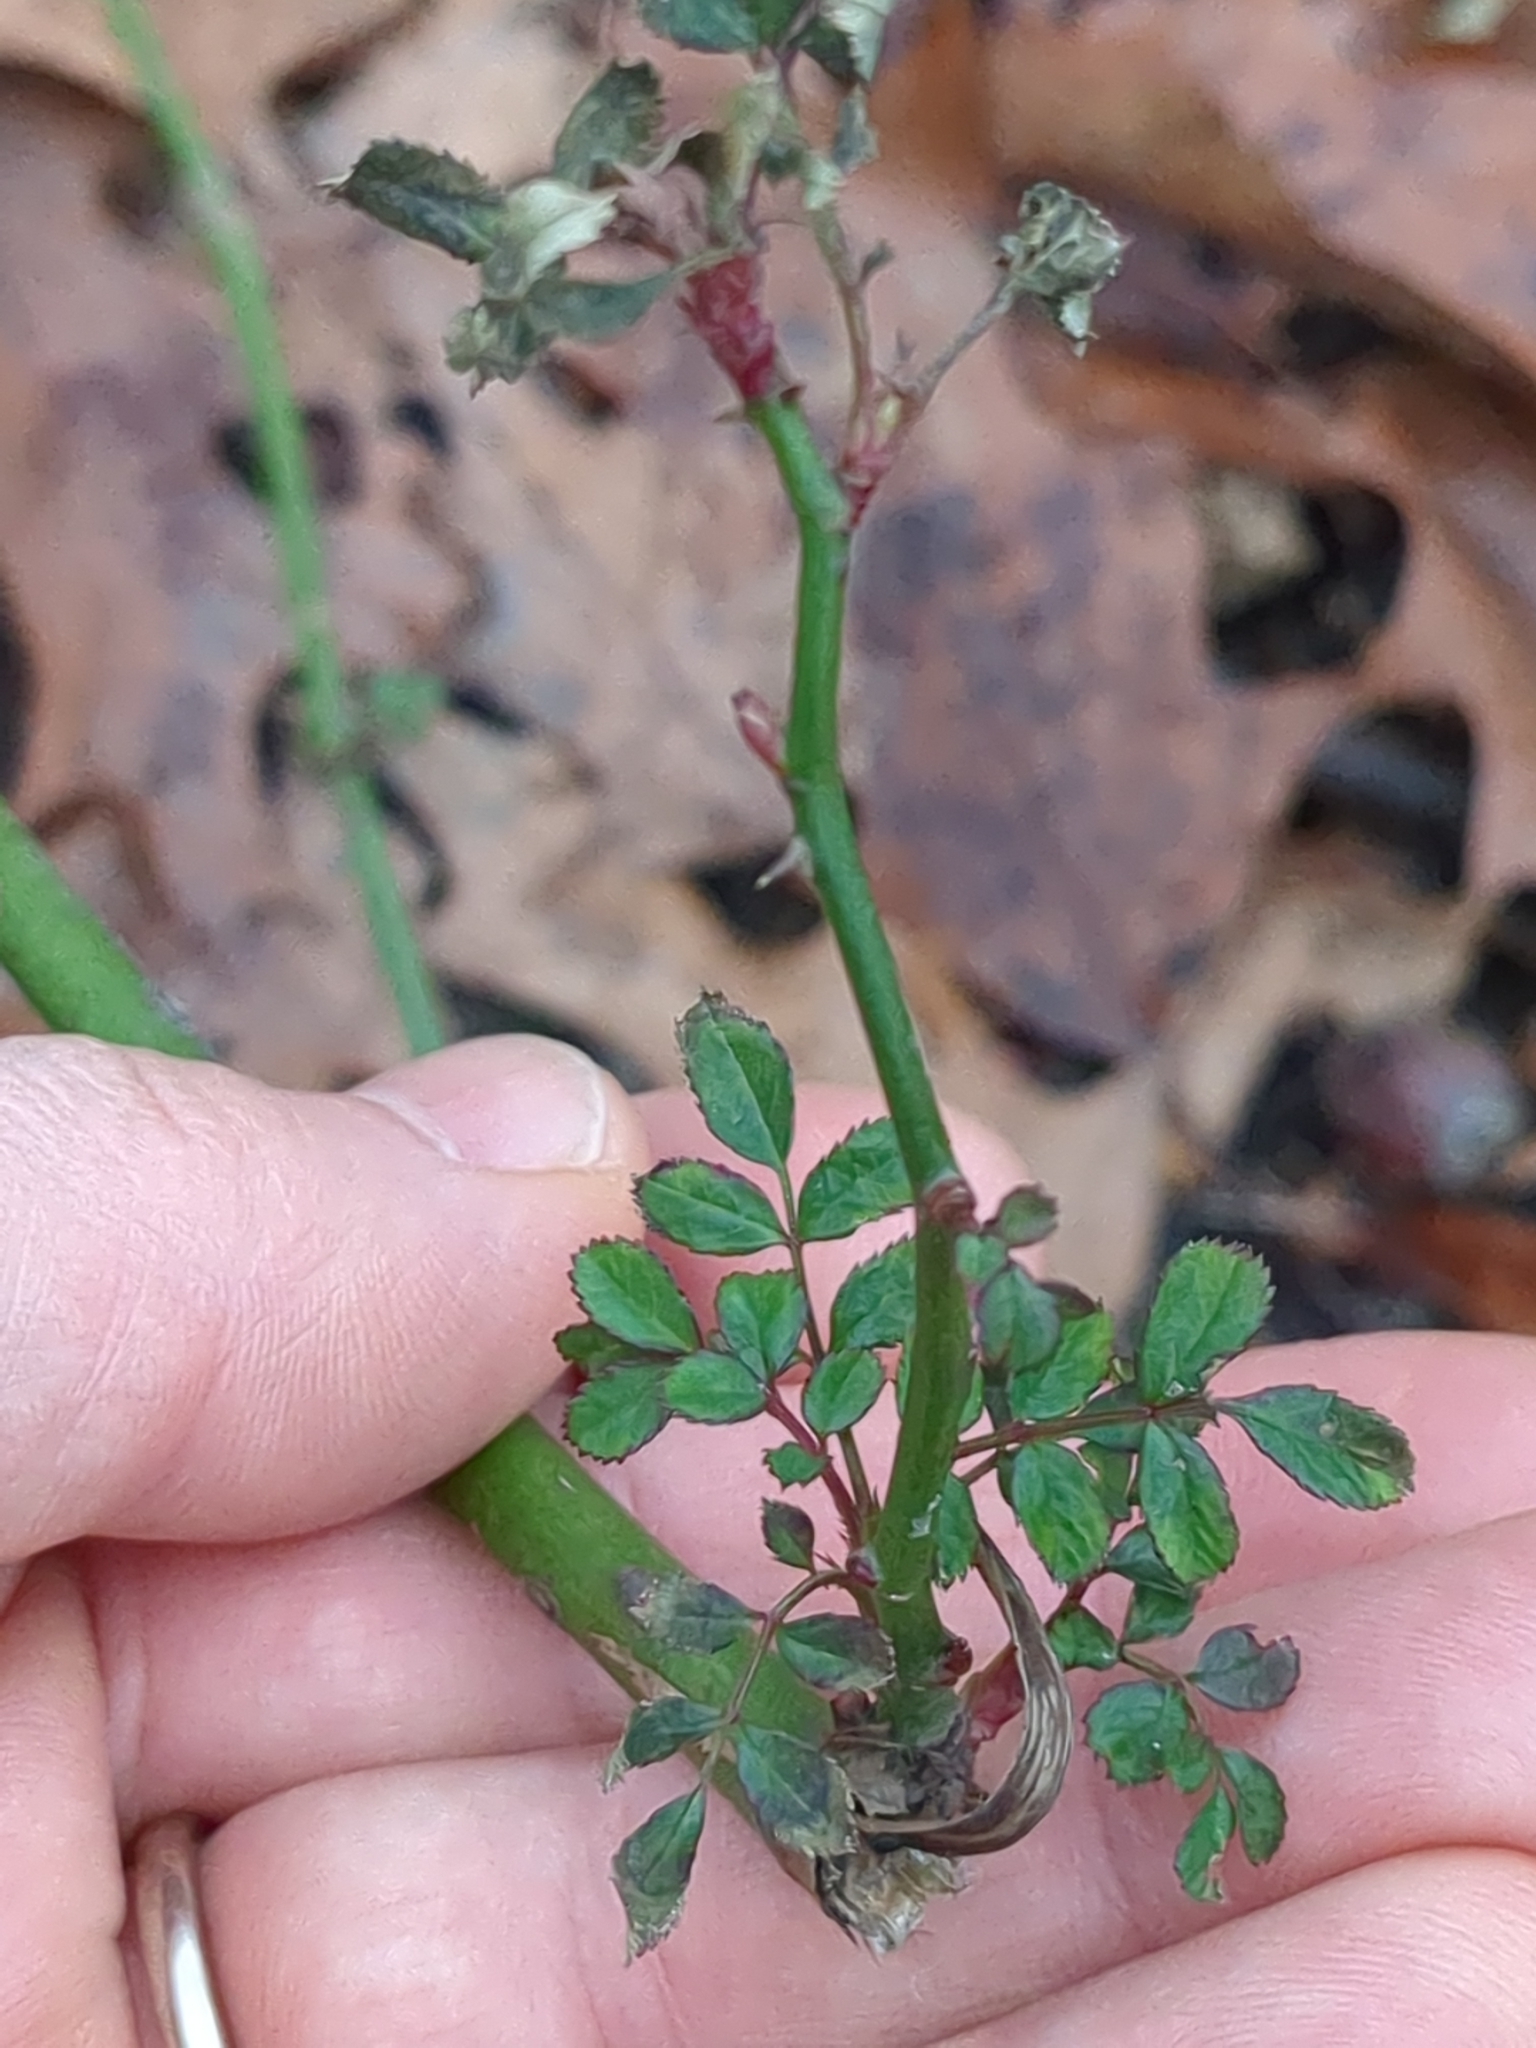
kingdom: Plantae
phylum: Tracheophyta
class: Magnoliopsida
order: Rosales
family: Rosaceae
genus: Rosa
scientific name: Rosa multiflora
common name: Multiflora rose
